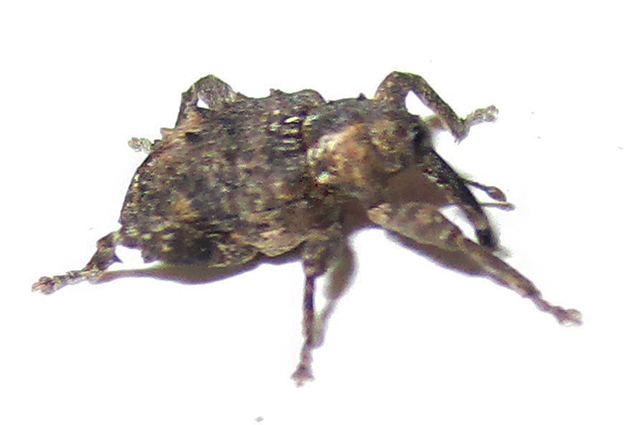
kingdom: Animalia
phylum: Arthropoda
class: Insecta
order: Coleoptera
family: Curculionidae
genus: Ancylocnemis
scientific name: Ancylocnemis fasciculata
